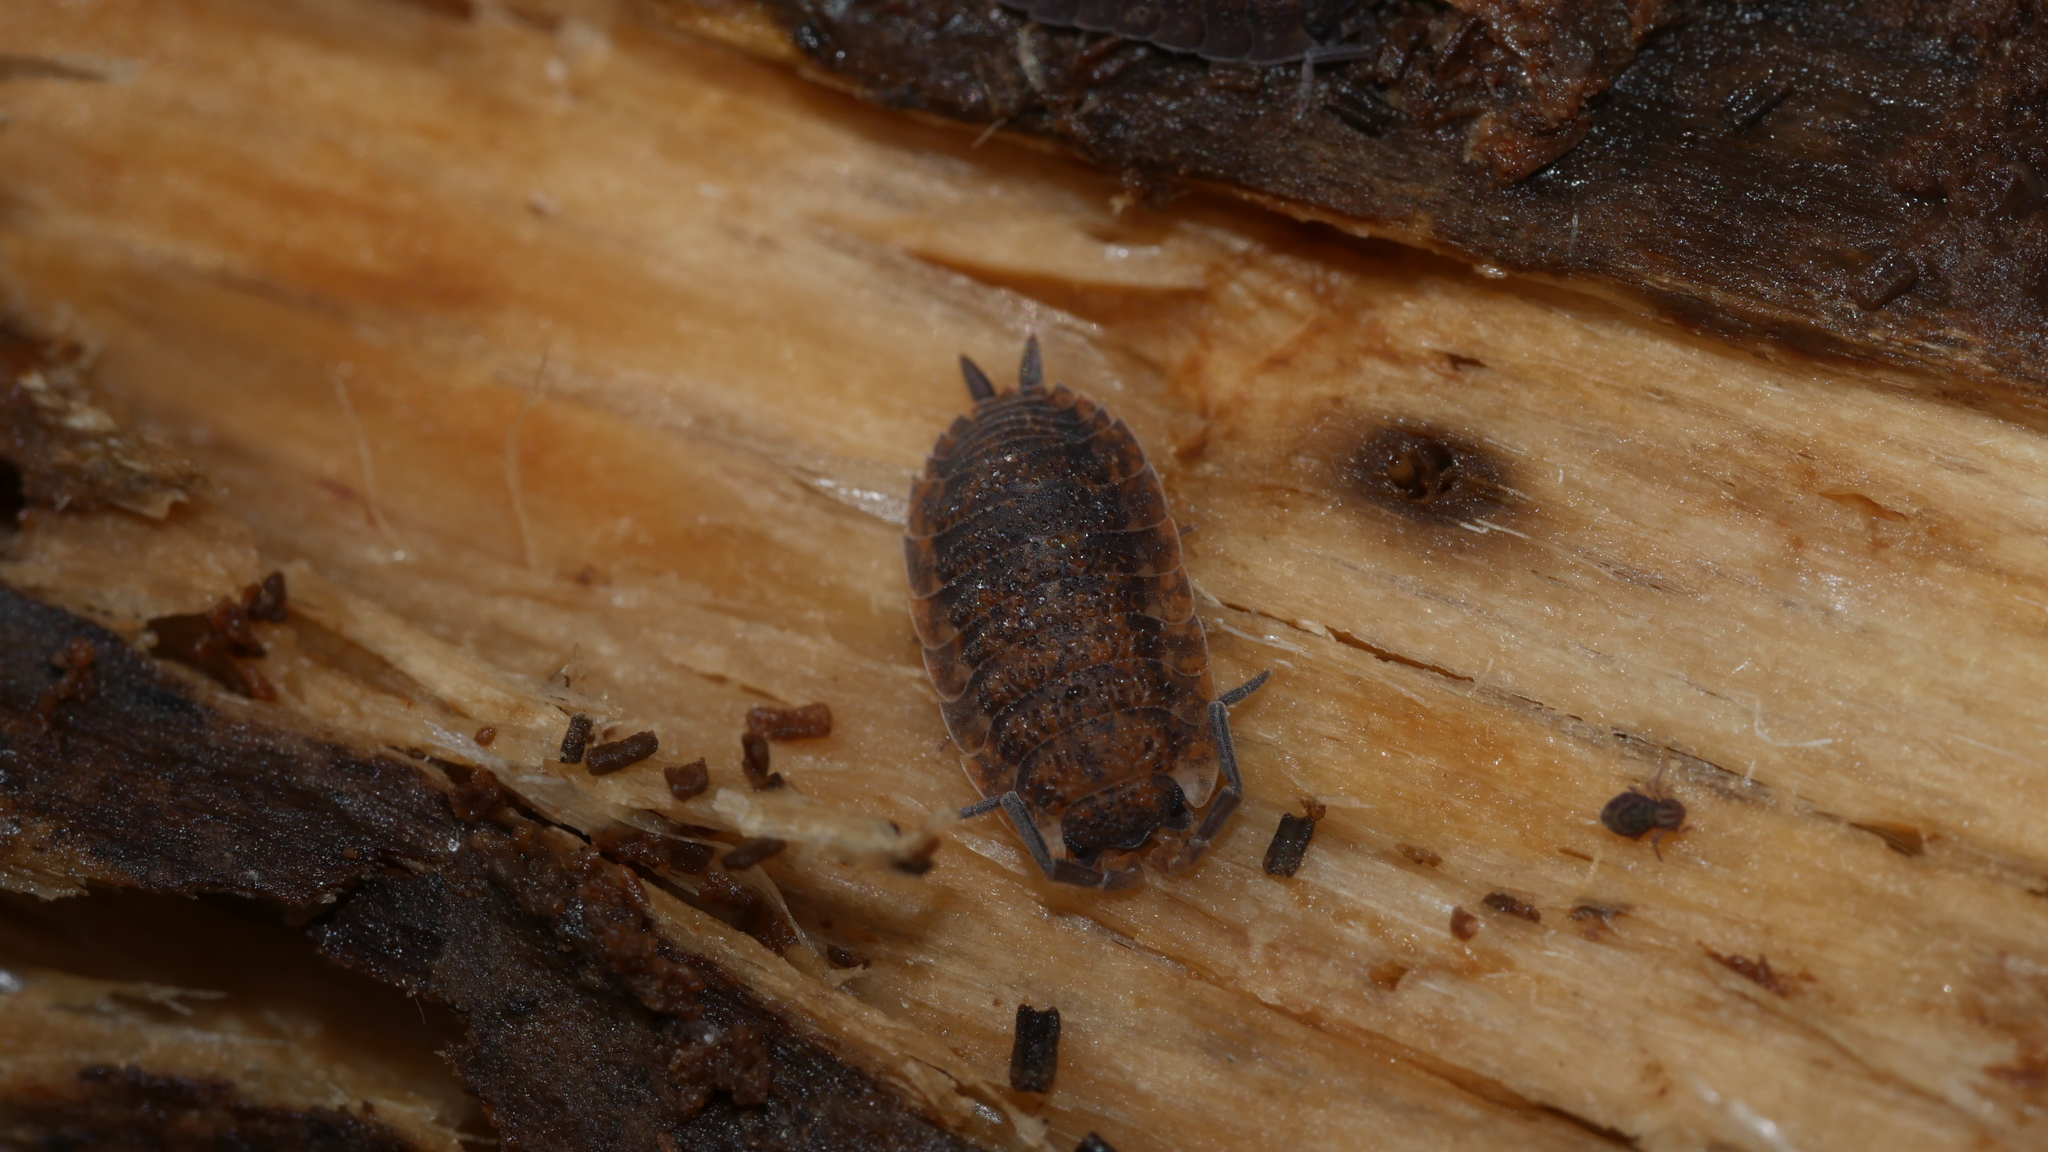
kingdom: Animalia
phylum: Arthropoda
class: Malacostraca
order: Isopoda
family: Porcellionidae
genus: Porcellio
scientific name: Porcellio scaber
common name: Common rough woodlouse
